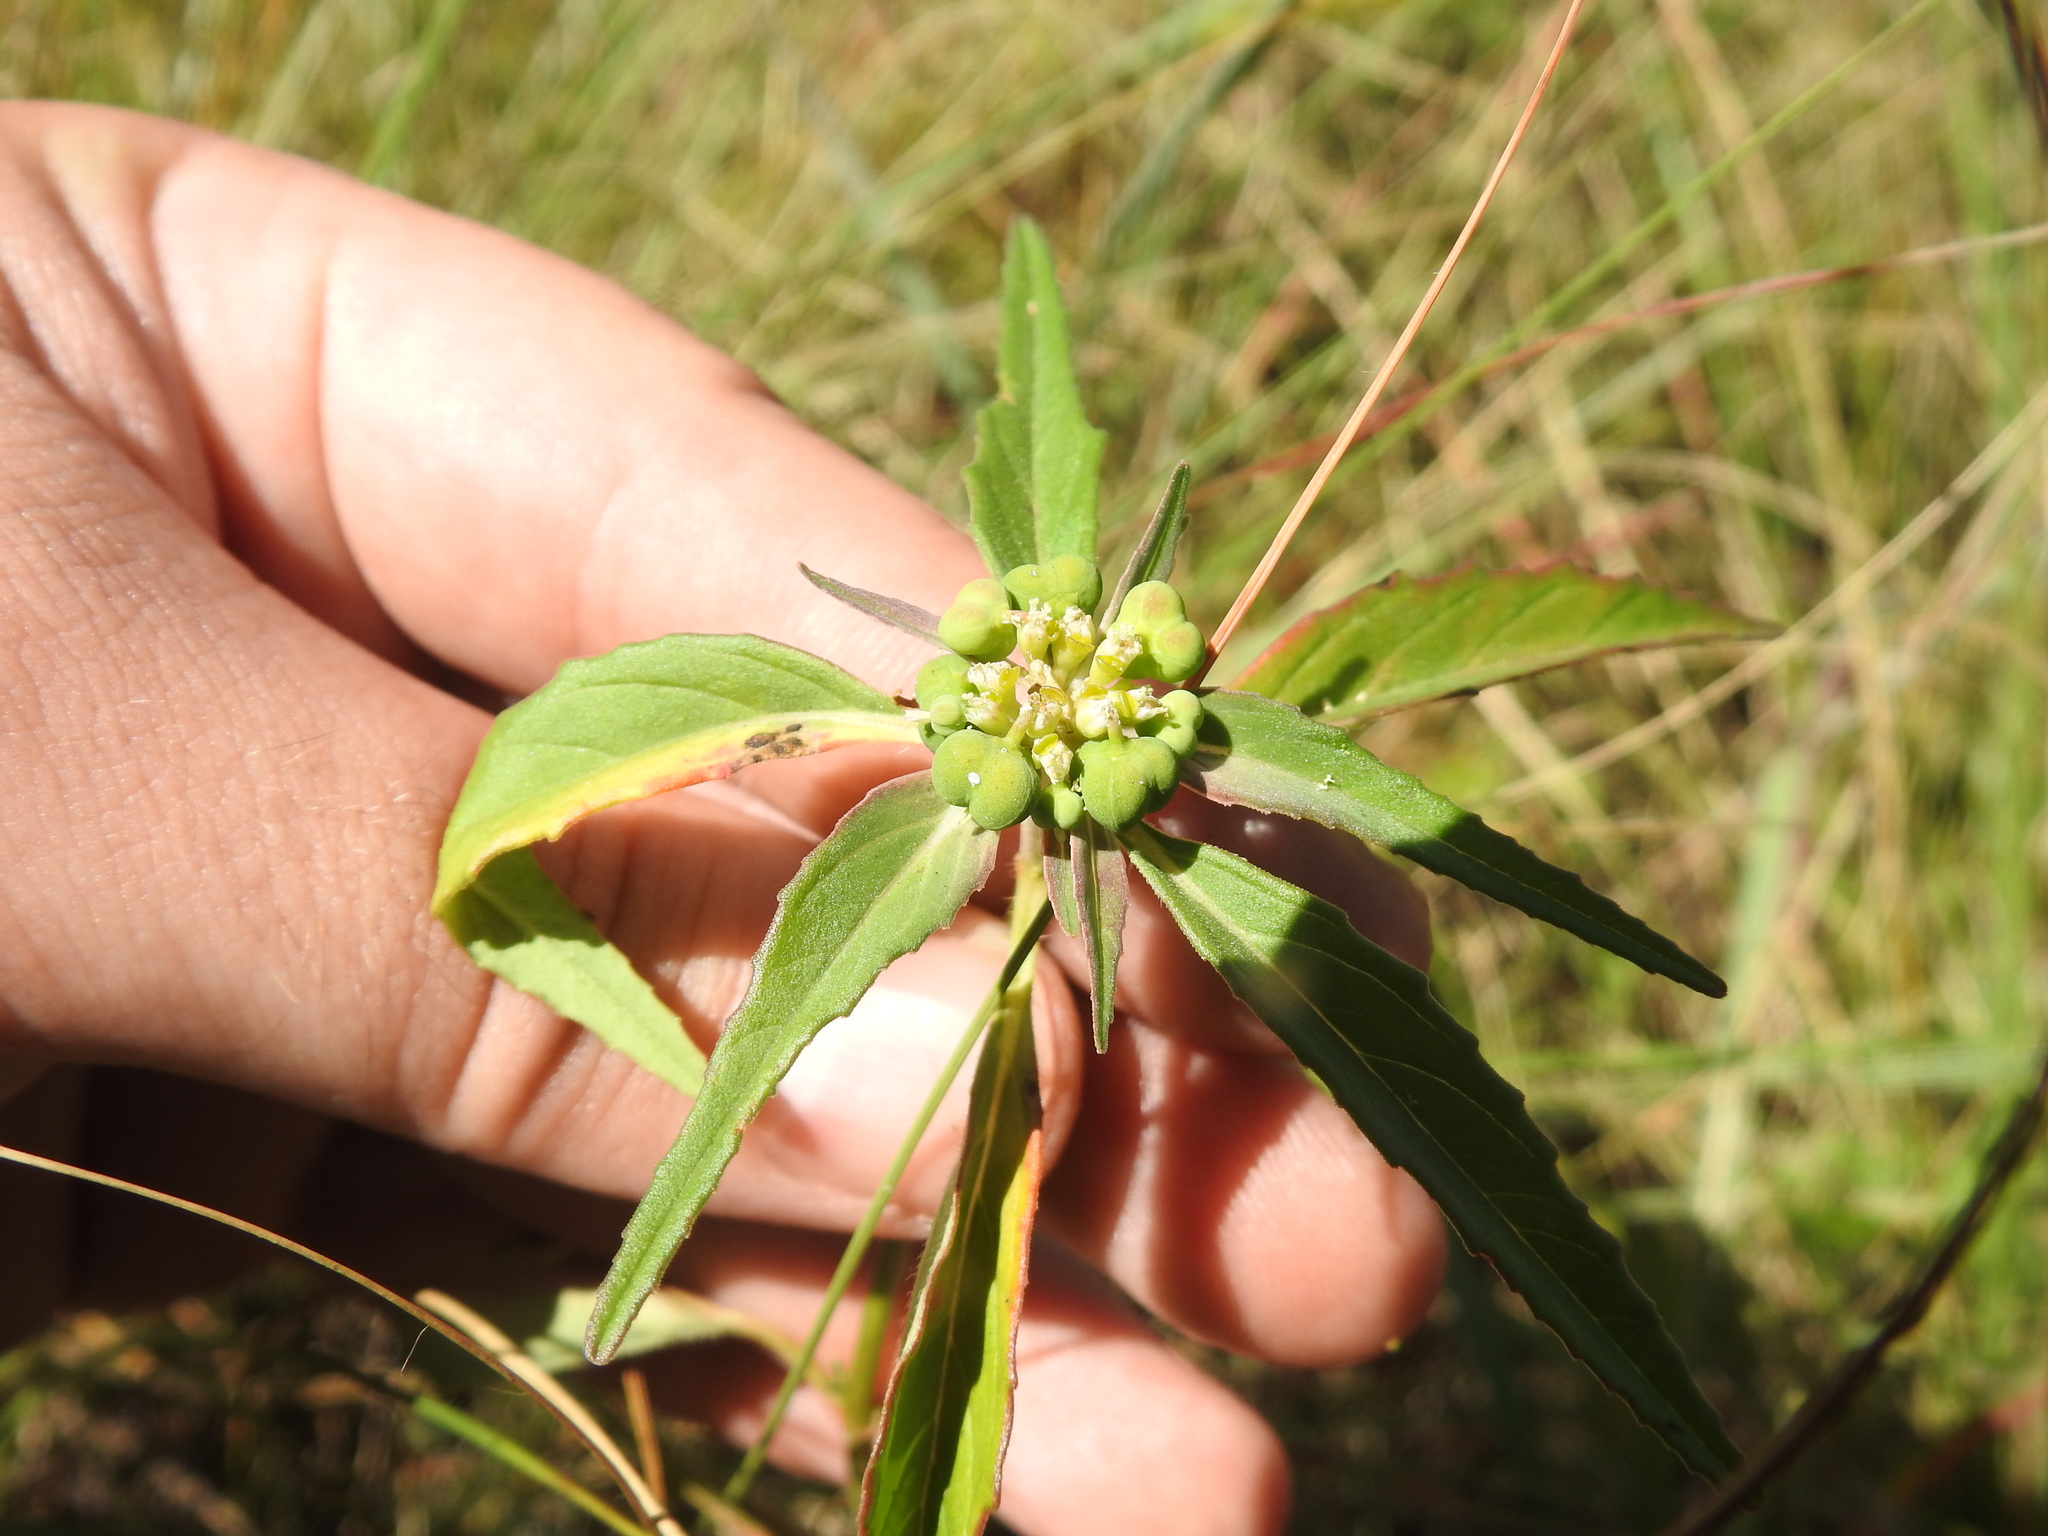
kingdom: Plantae
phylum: Tracheophyta
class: Magnoliopsida
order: Malpighiales
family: Euphorbiaceae
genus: Euphorbia
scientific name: Euphorbia dentata
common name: Dentate spurge
